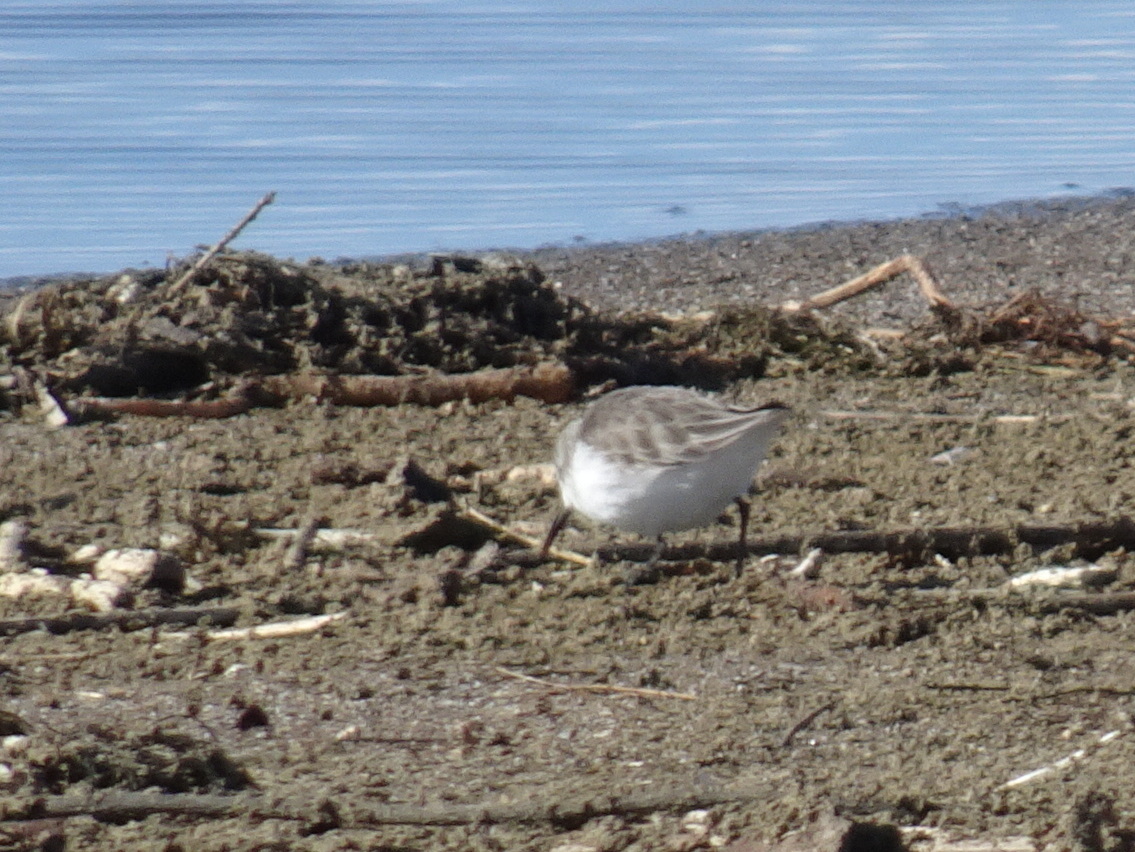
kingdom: Animalia
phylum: Chordata
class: Aves
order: Charadriiformes
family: Scolopacidae
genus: Calidris
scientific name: Calidris mauri
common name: Western sandpiper
